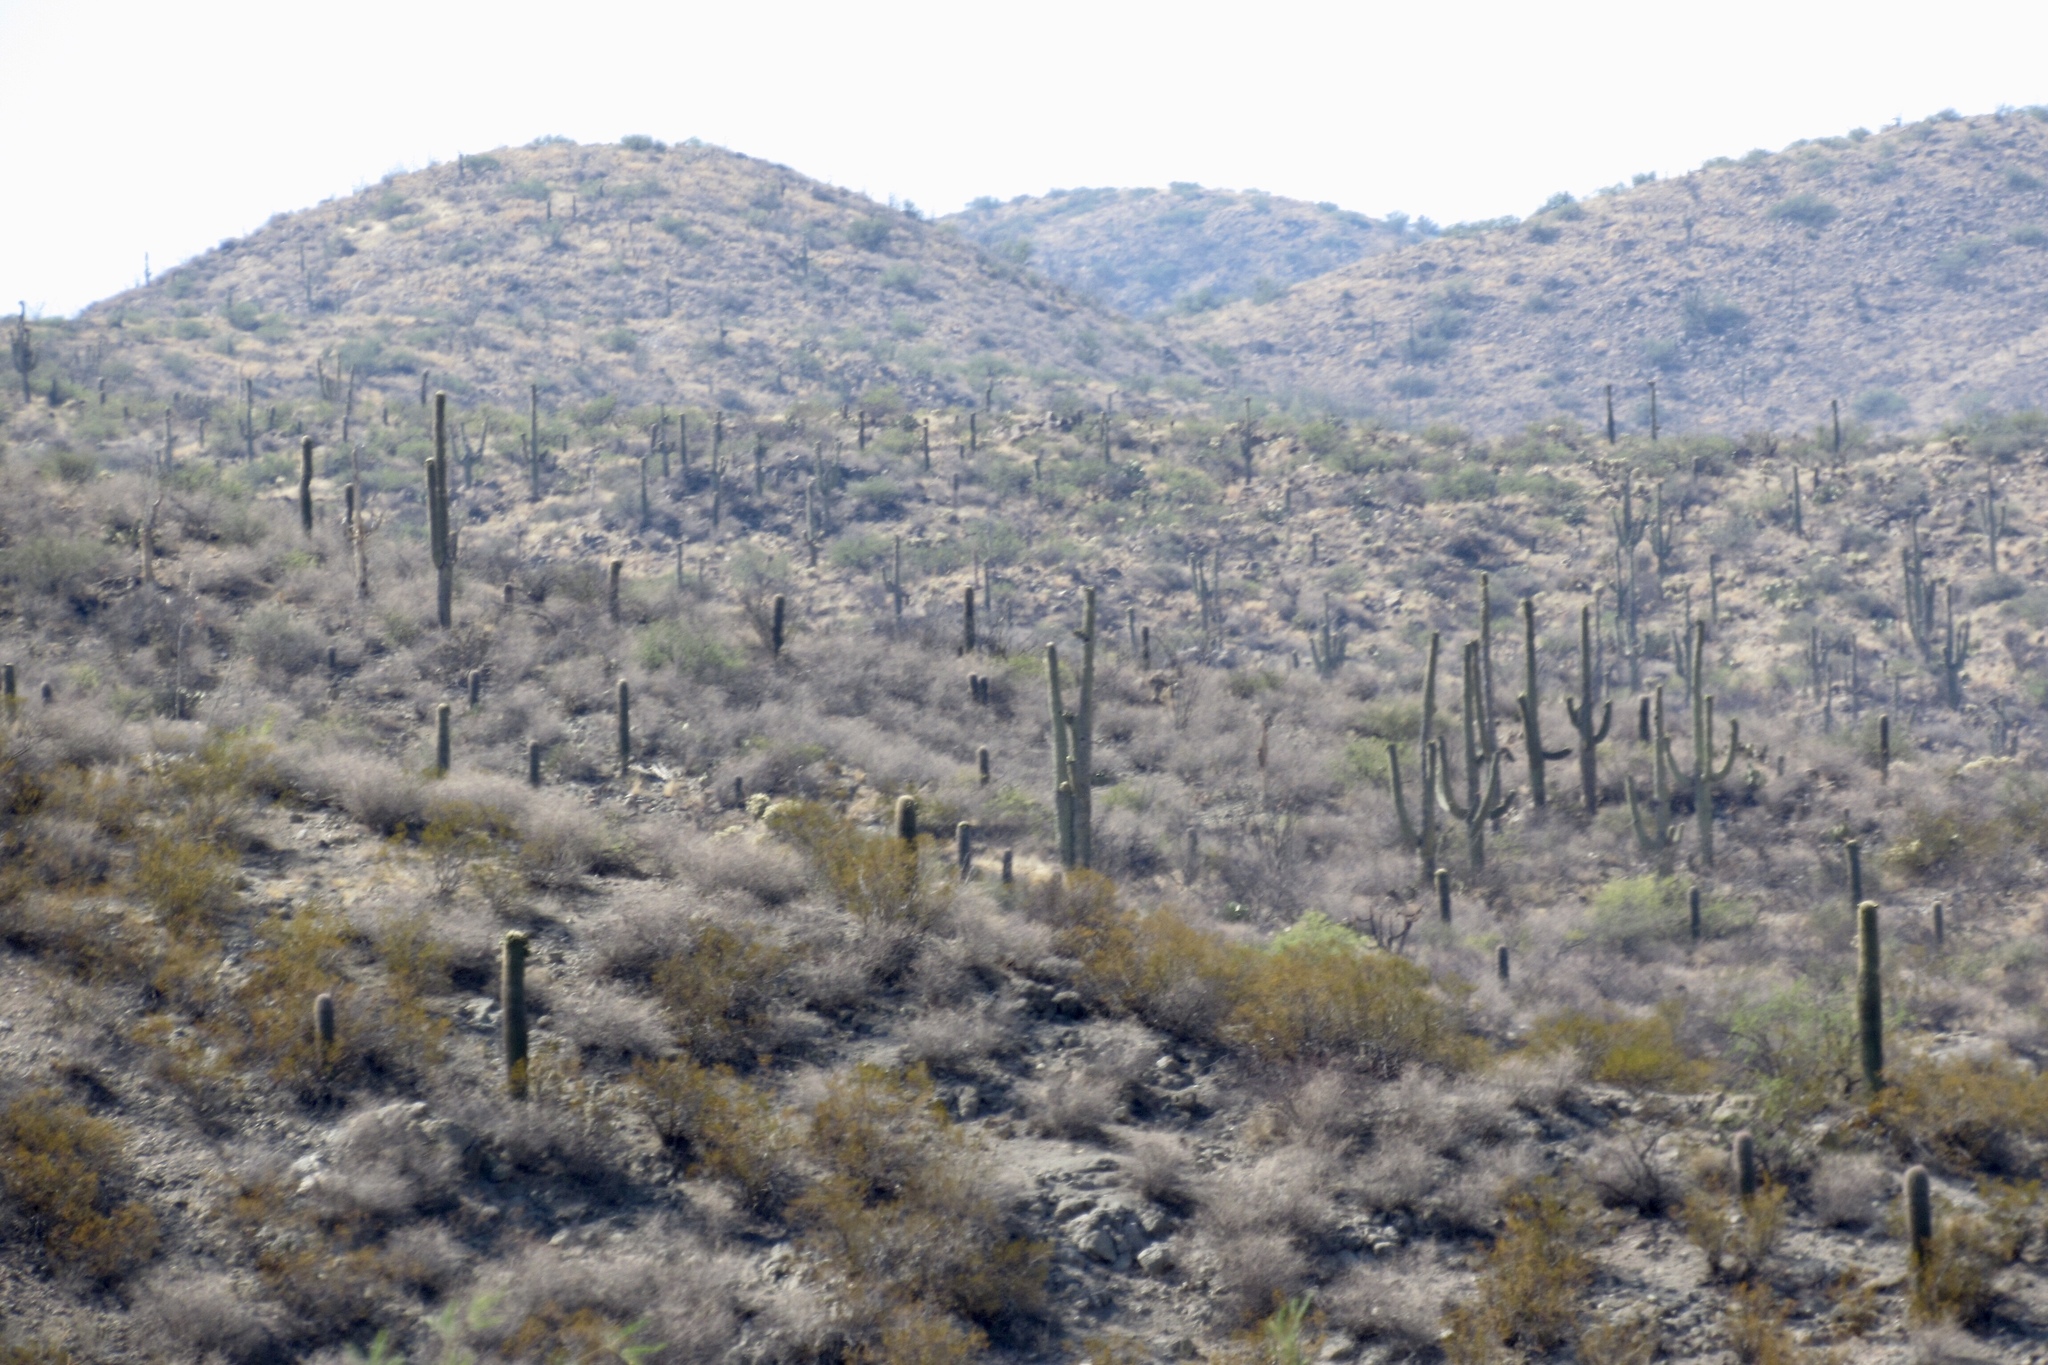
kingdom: Plantae
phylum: Tracheophyta
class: Magnoliopsida
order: Caryophyllales
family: Cactaceae
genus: Carnegiea
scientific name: Carnegiea gigantea
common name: Saguaro
